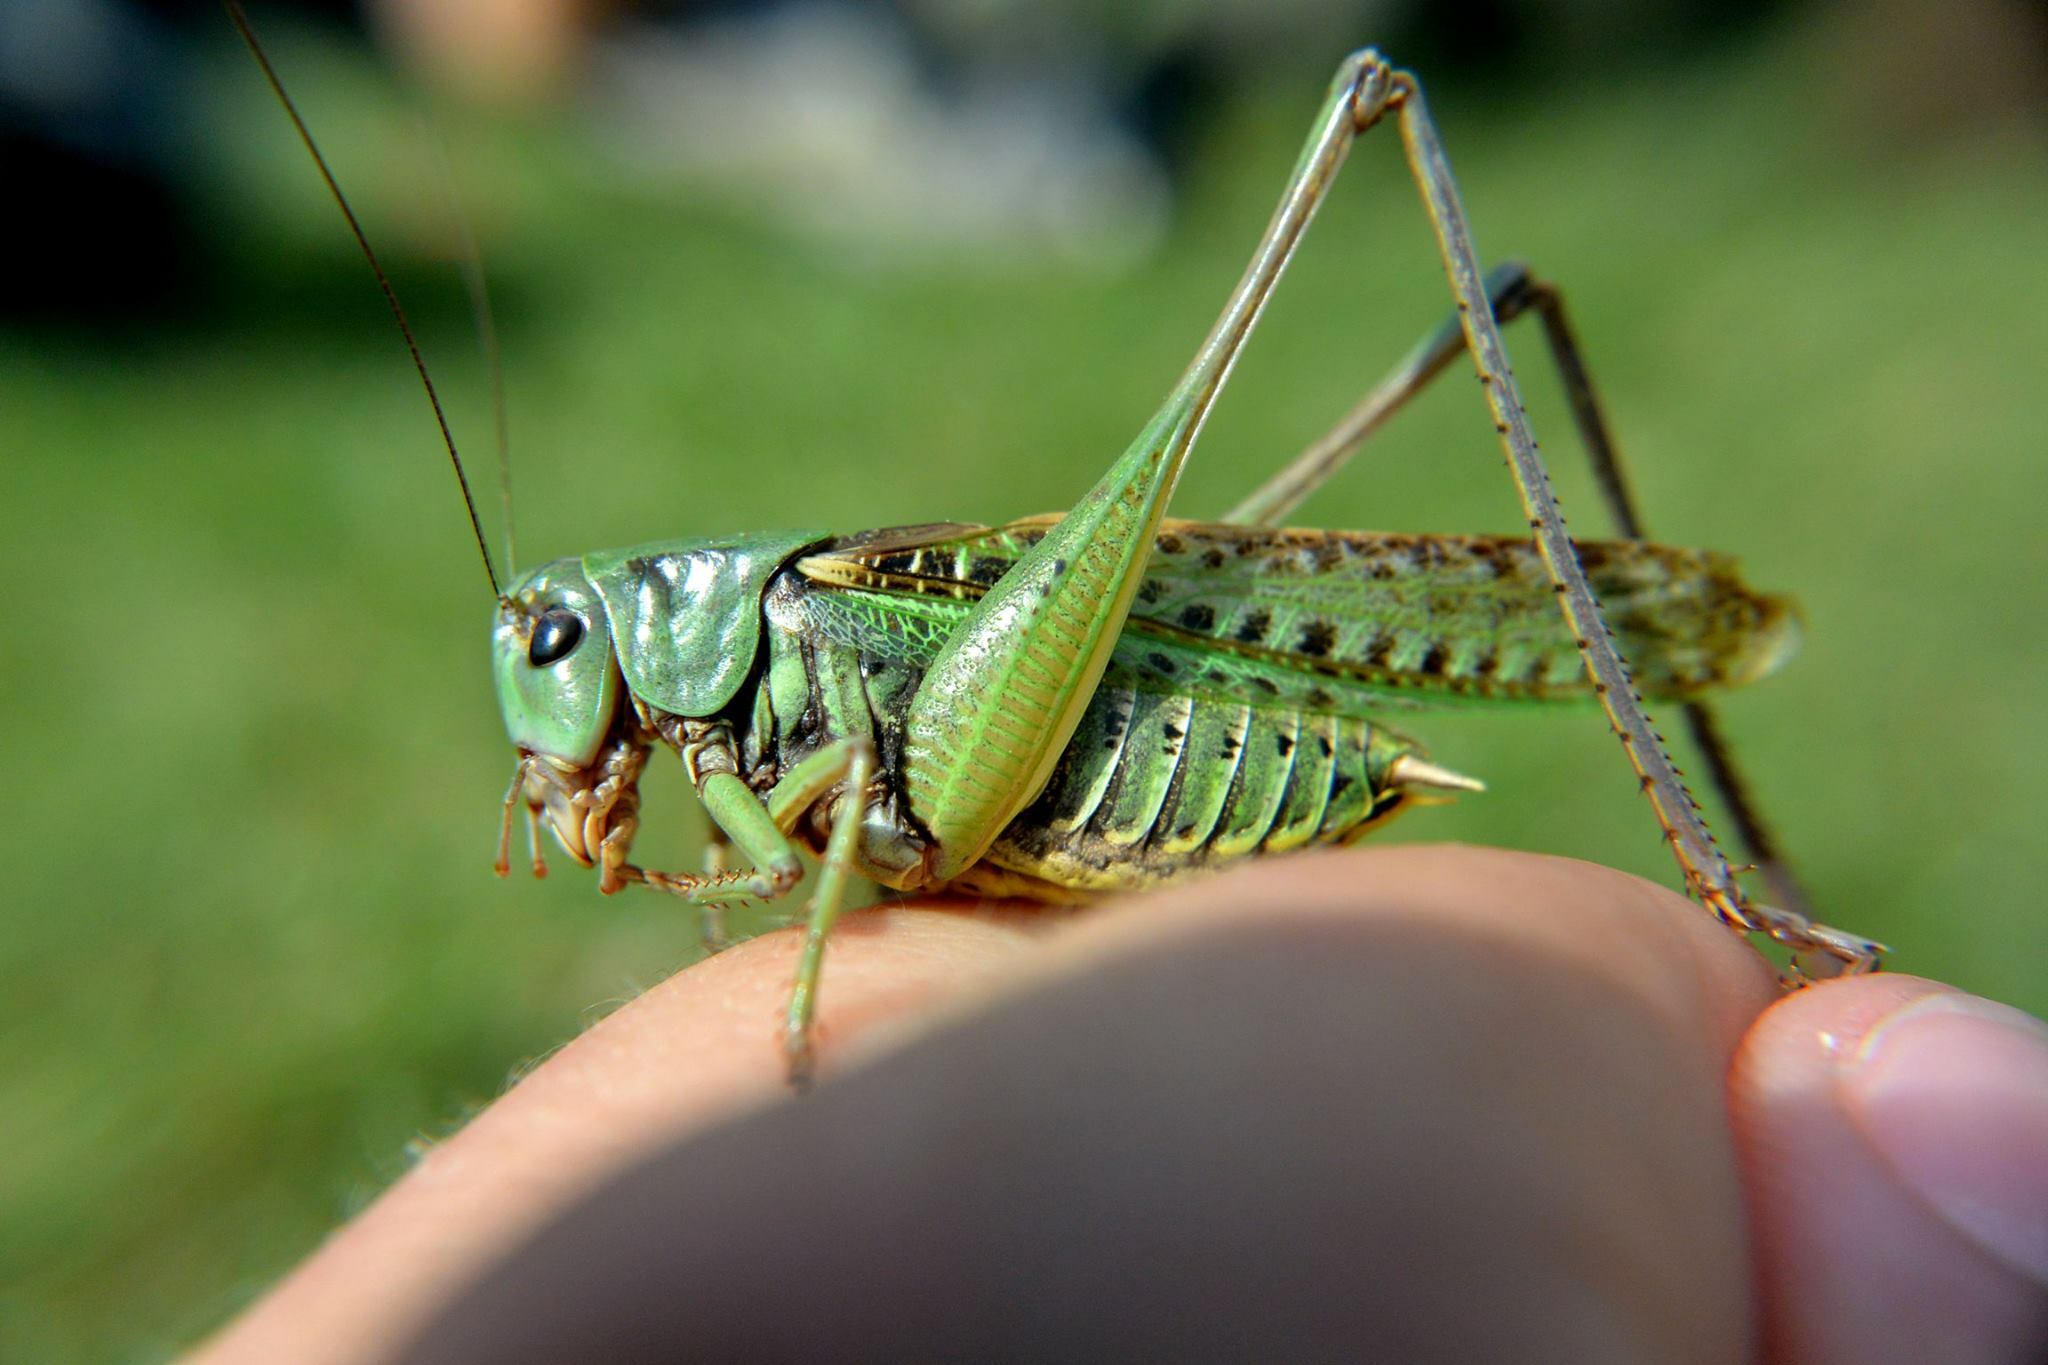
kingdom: Animalia
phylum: Arthropoda
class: Insecta
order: Orthoptera
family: Tettigoniidae
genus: Decticus
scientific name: Decticus verrucivorus
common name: Wart-biter
